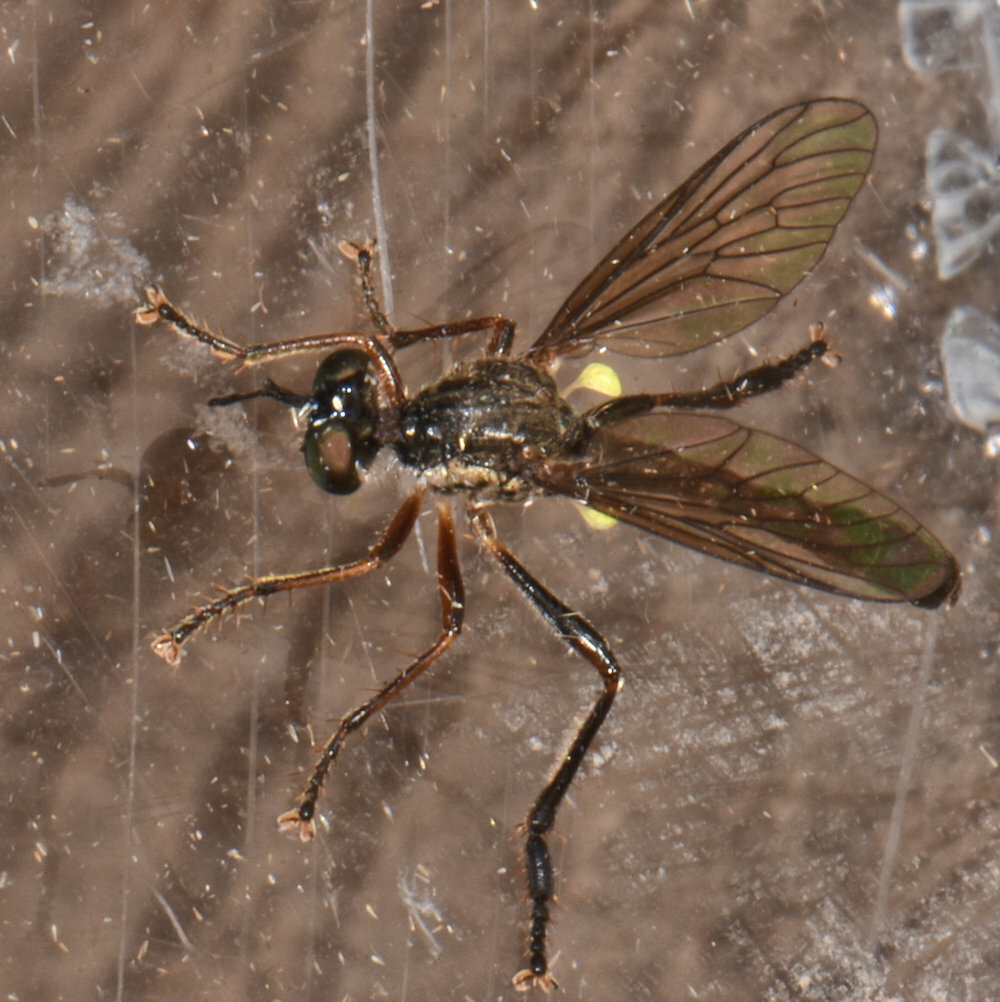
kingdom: Animalia
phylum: Arthropoda
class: Insecta
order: Diptera
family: Asilidae
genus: Dioctria
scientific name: Dioctria hyalipennis
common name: Stripe-legged robberfly
